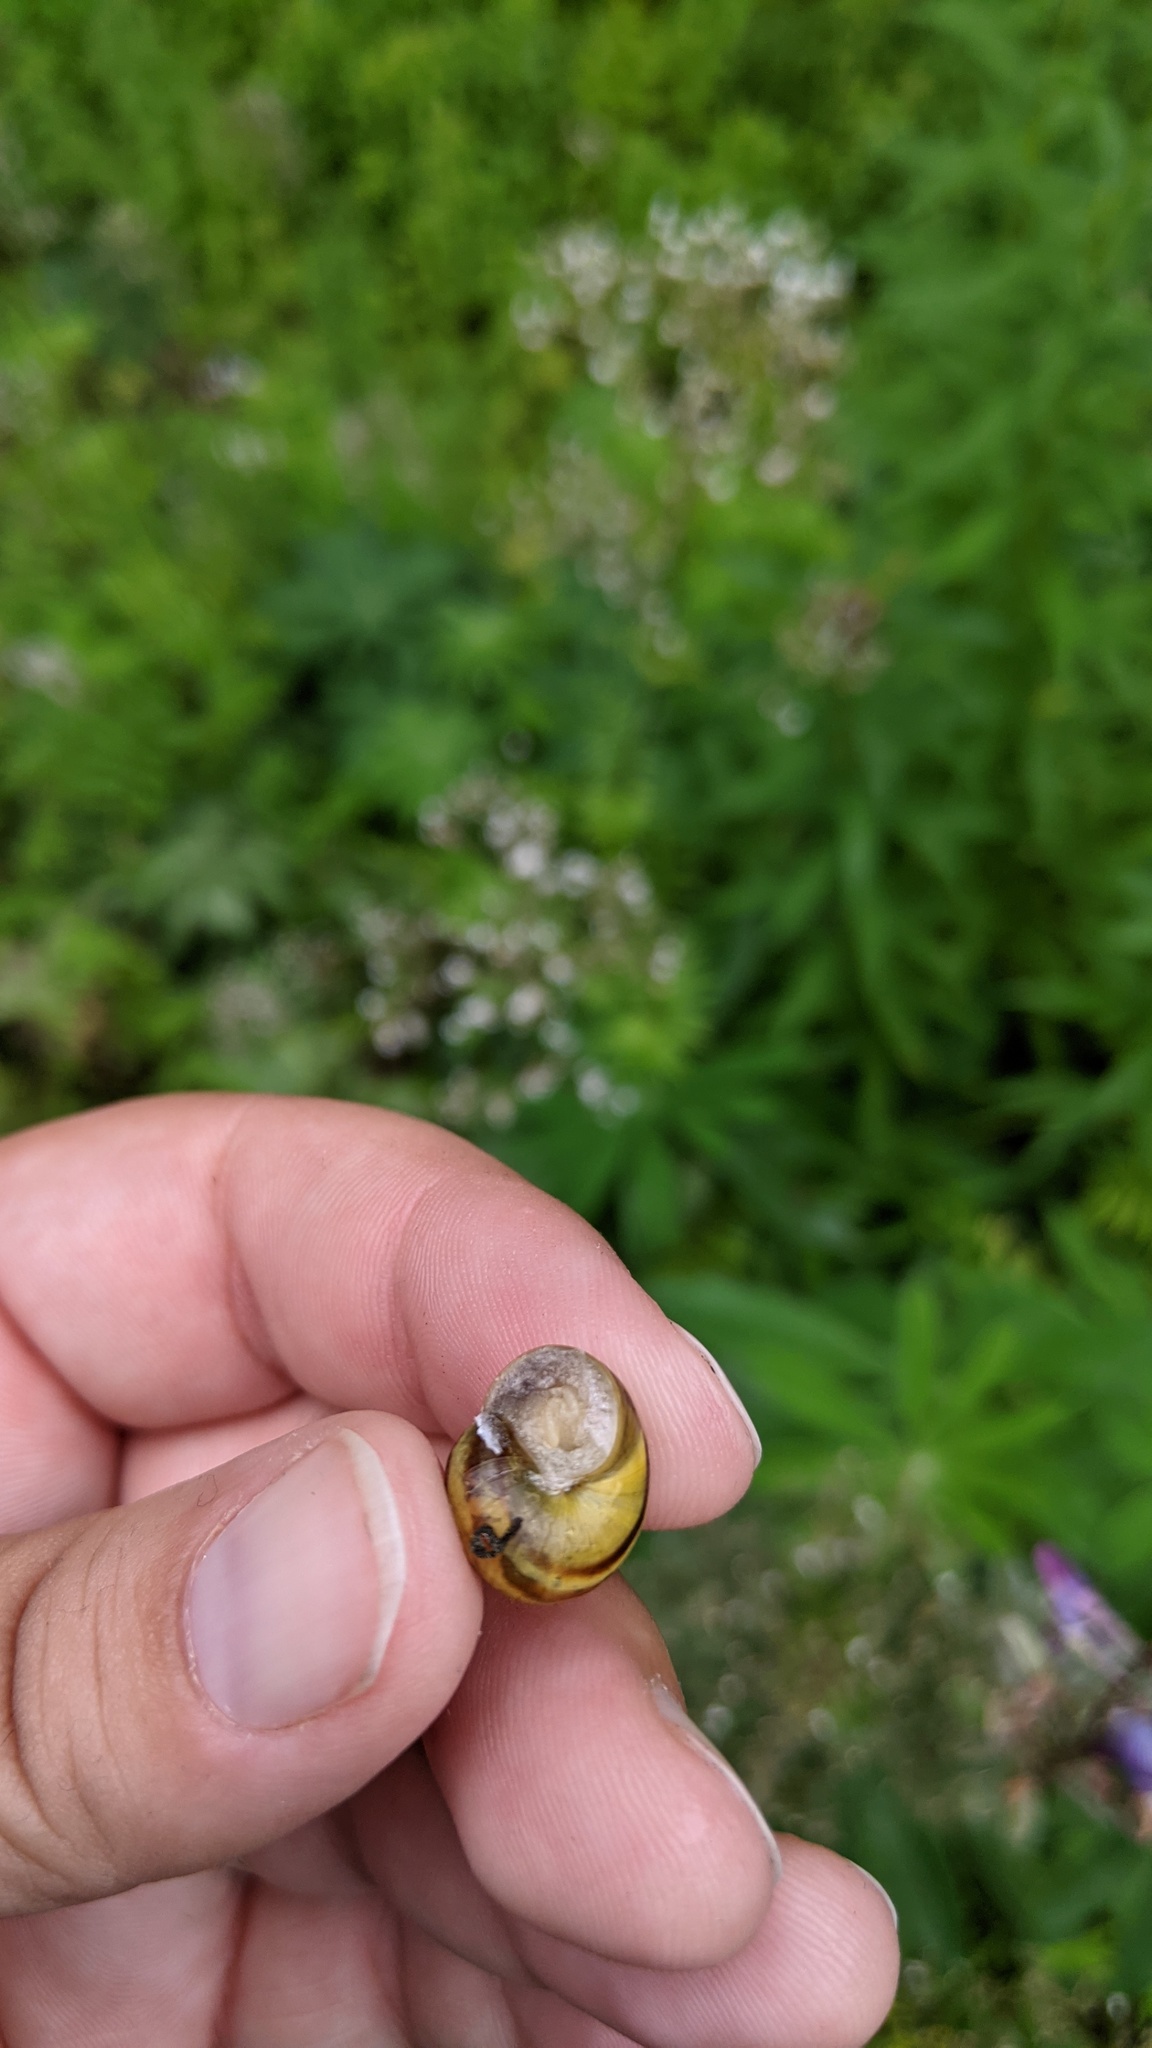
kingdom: Animalia
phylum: Mollusca
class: Gastropoda
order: Stylommatophora
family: Helicidae
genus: Cepaea
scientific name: Cepaea
